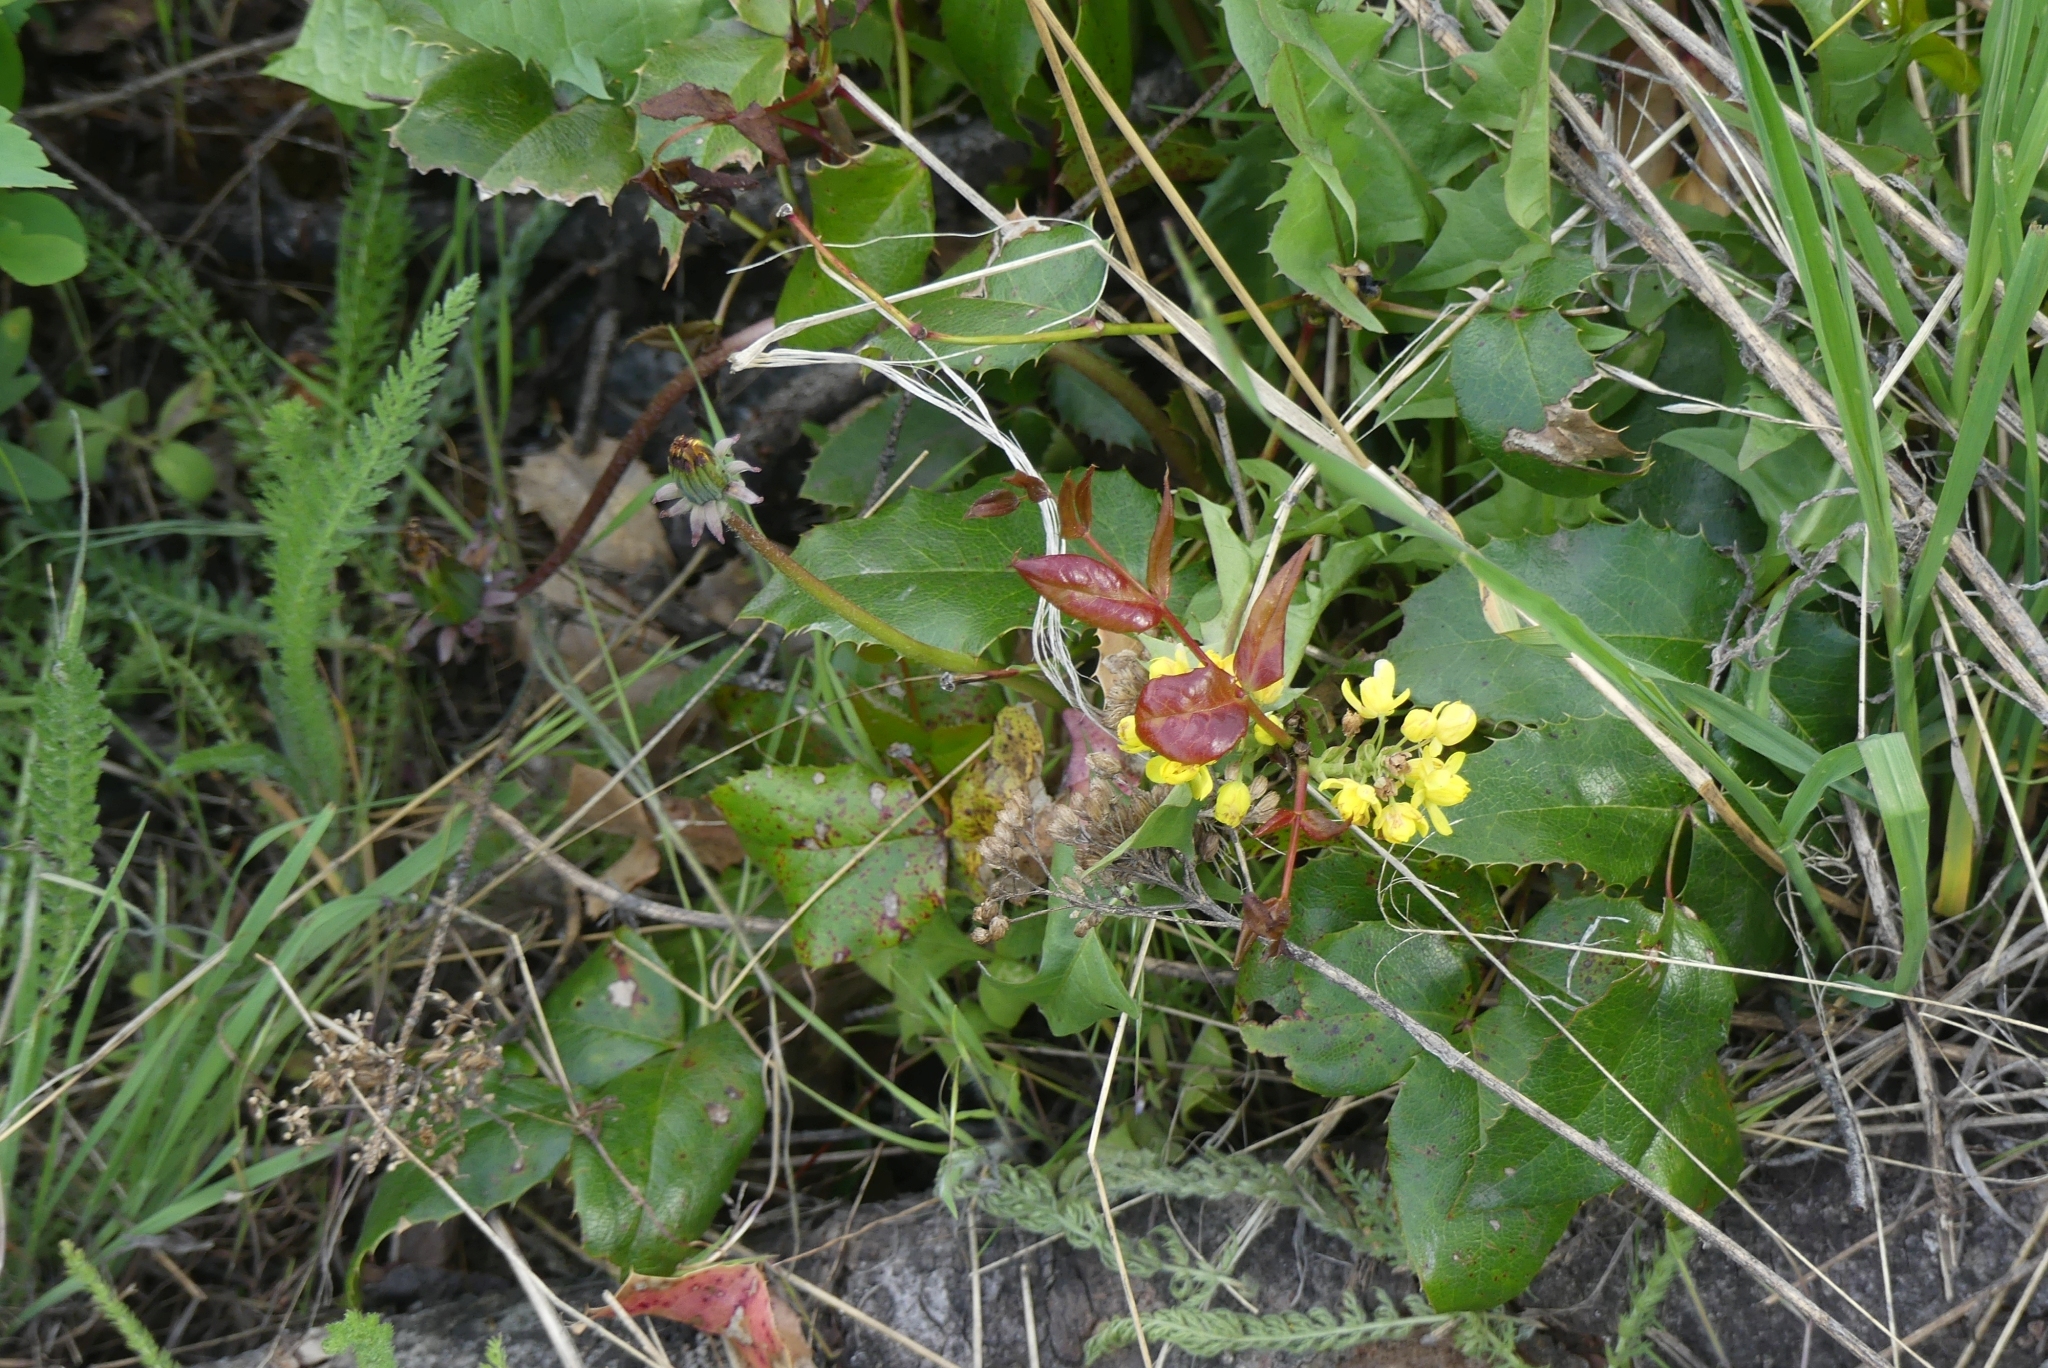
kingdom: Plantae
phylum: Tracheophyta
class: Magnoliopsida
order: Ranunculales
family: Berberidaceae
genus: Mahonia
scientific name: Mahonia aquifolium
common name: Oregon-grape
